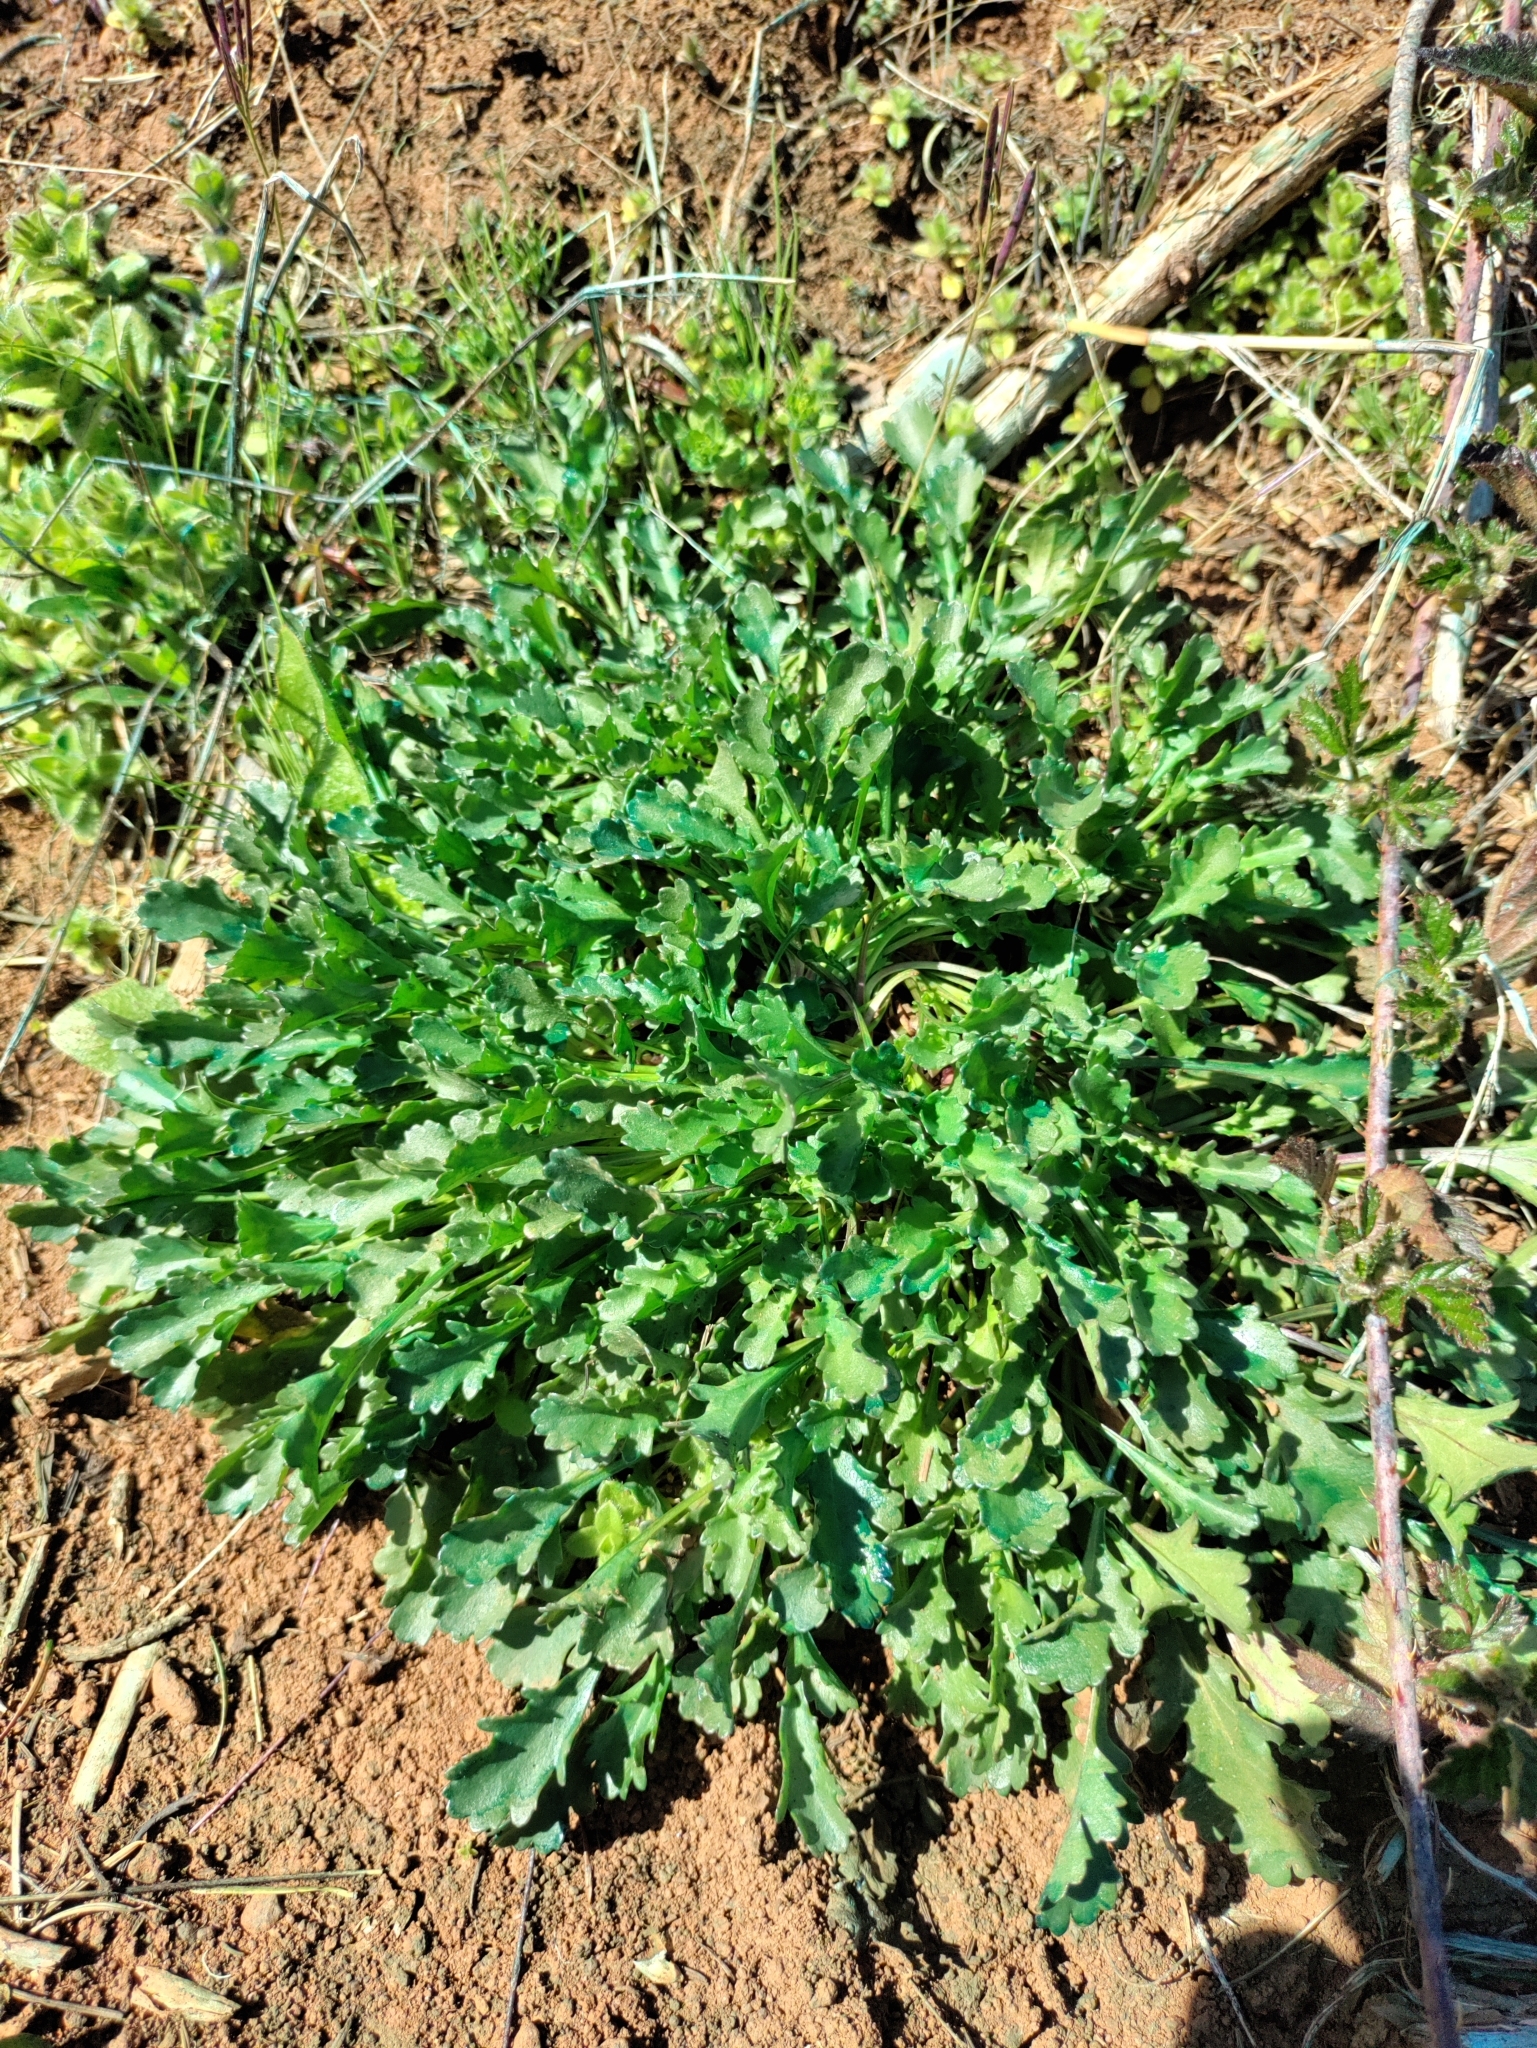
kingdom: Plantae
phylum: Tracheophyta
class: Magnoliopsida
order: Asterales
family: Asteraceae
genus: Leucanthemum
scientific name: Leucanthemum vulgare
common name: Oxeye daisy
